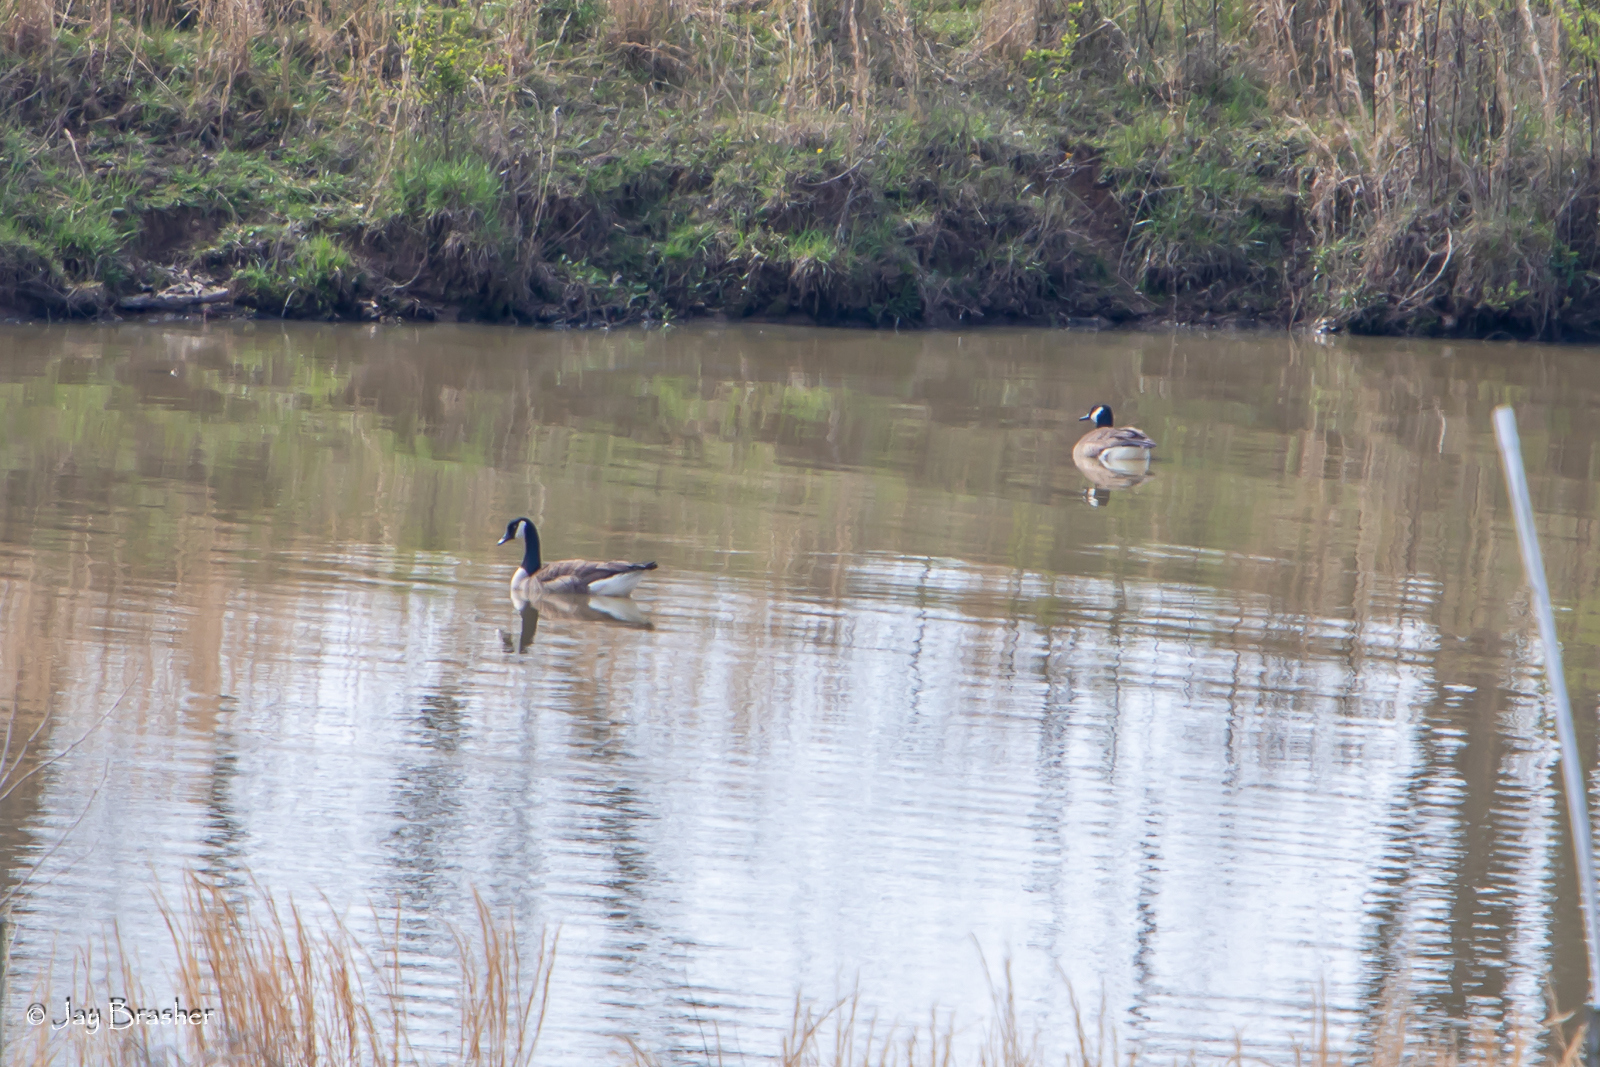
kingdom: Animalia
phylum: Chordata
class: Aves
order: Anseriformes
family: Anatidae
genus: Branta
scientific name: Branta canadensis
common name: Canada goose
